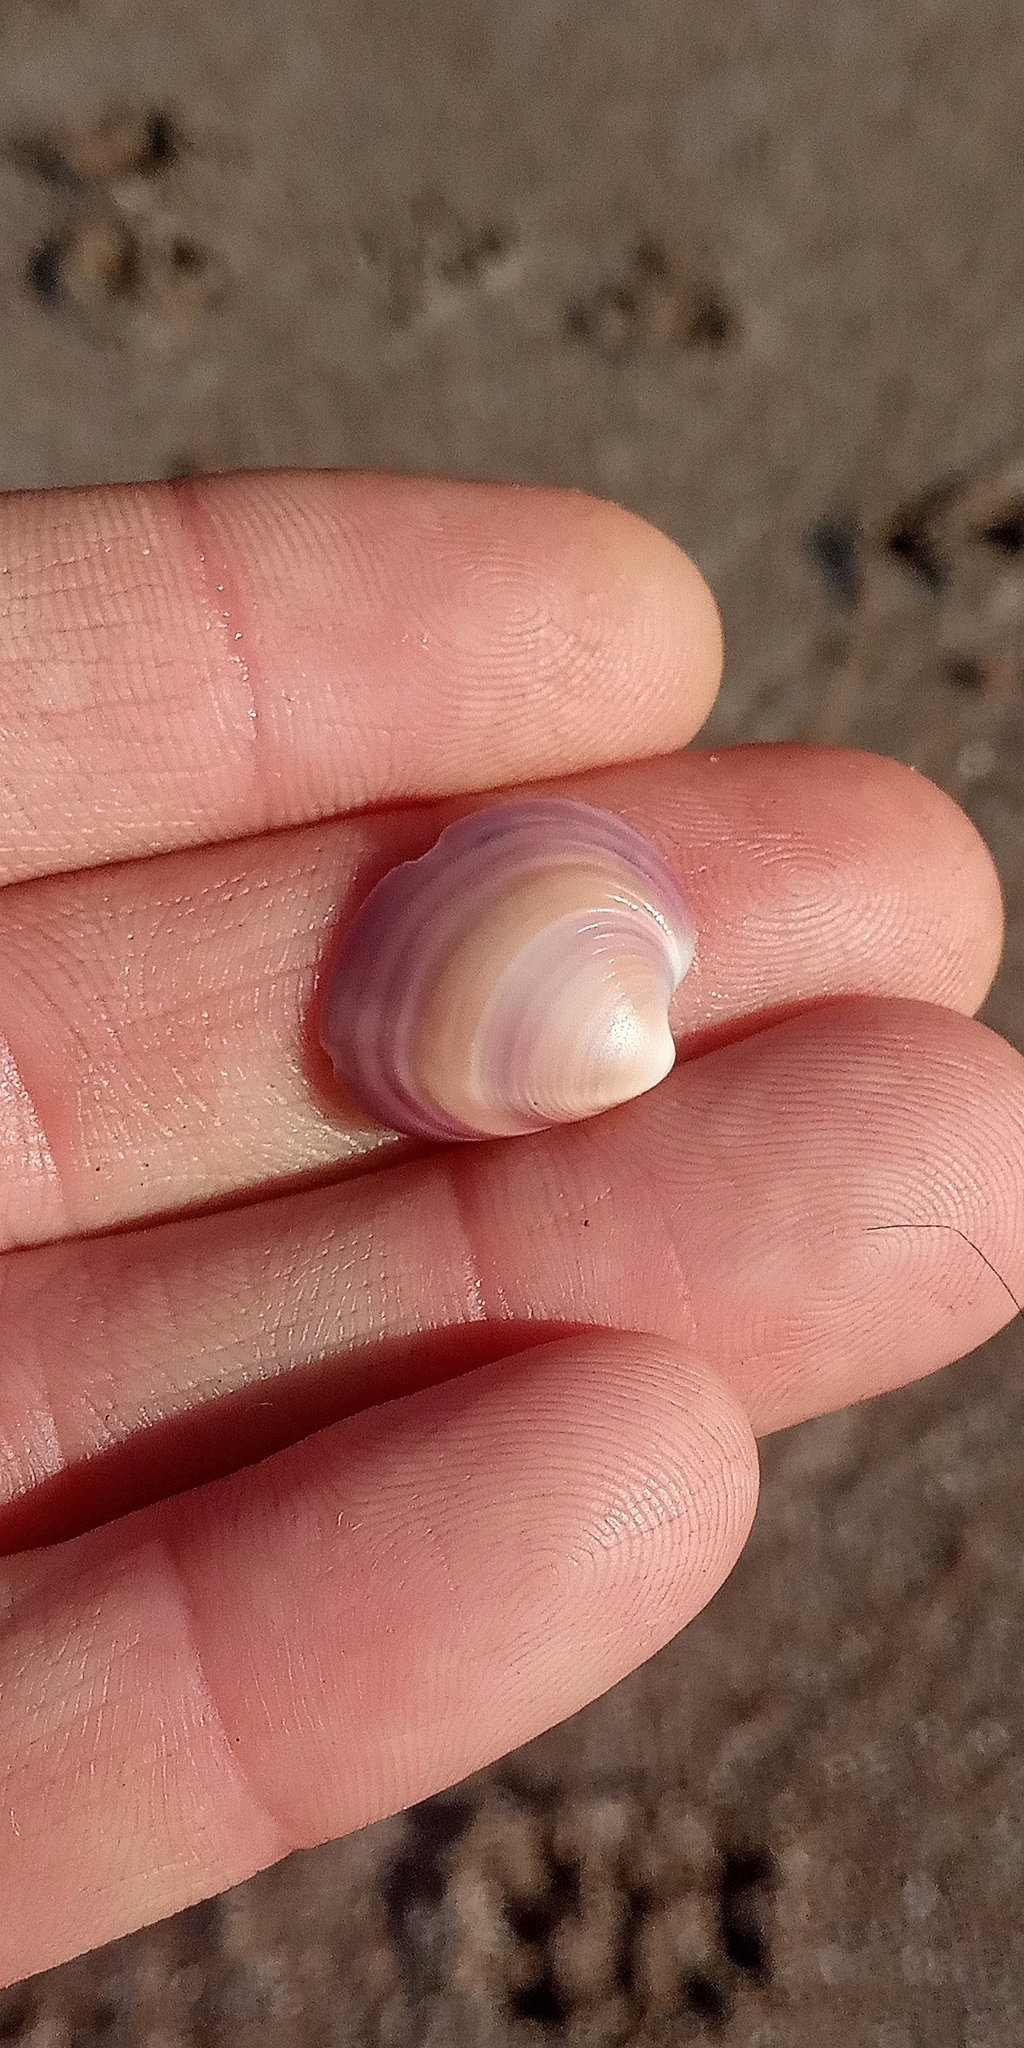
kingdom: Animalia
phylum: Mollusca
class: Bivalvia
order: Venerida
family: Veneridae
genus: Eucallista
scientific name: Eucallista purpurata
